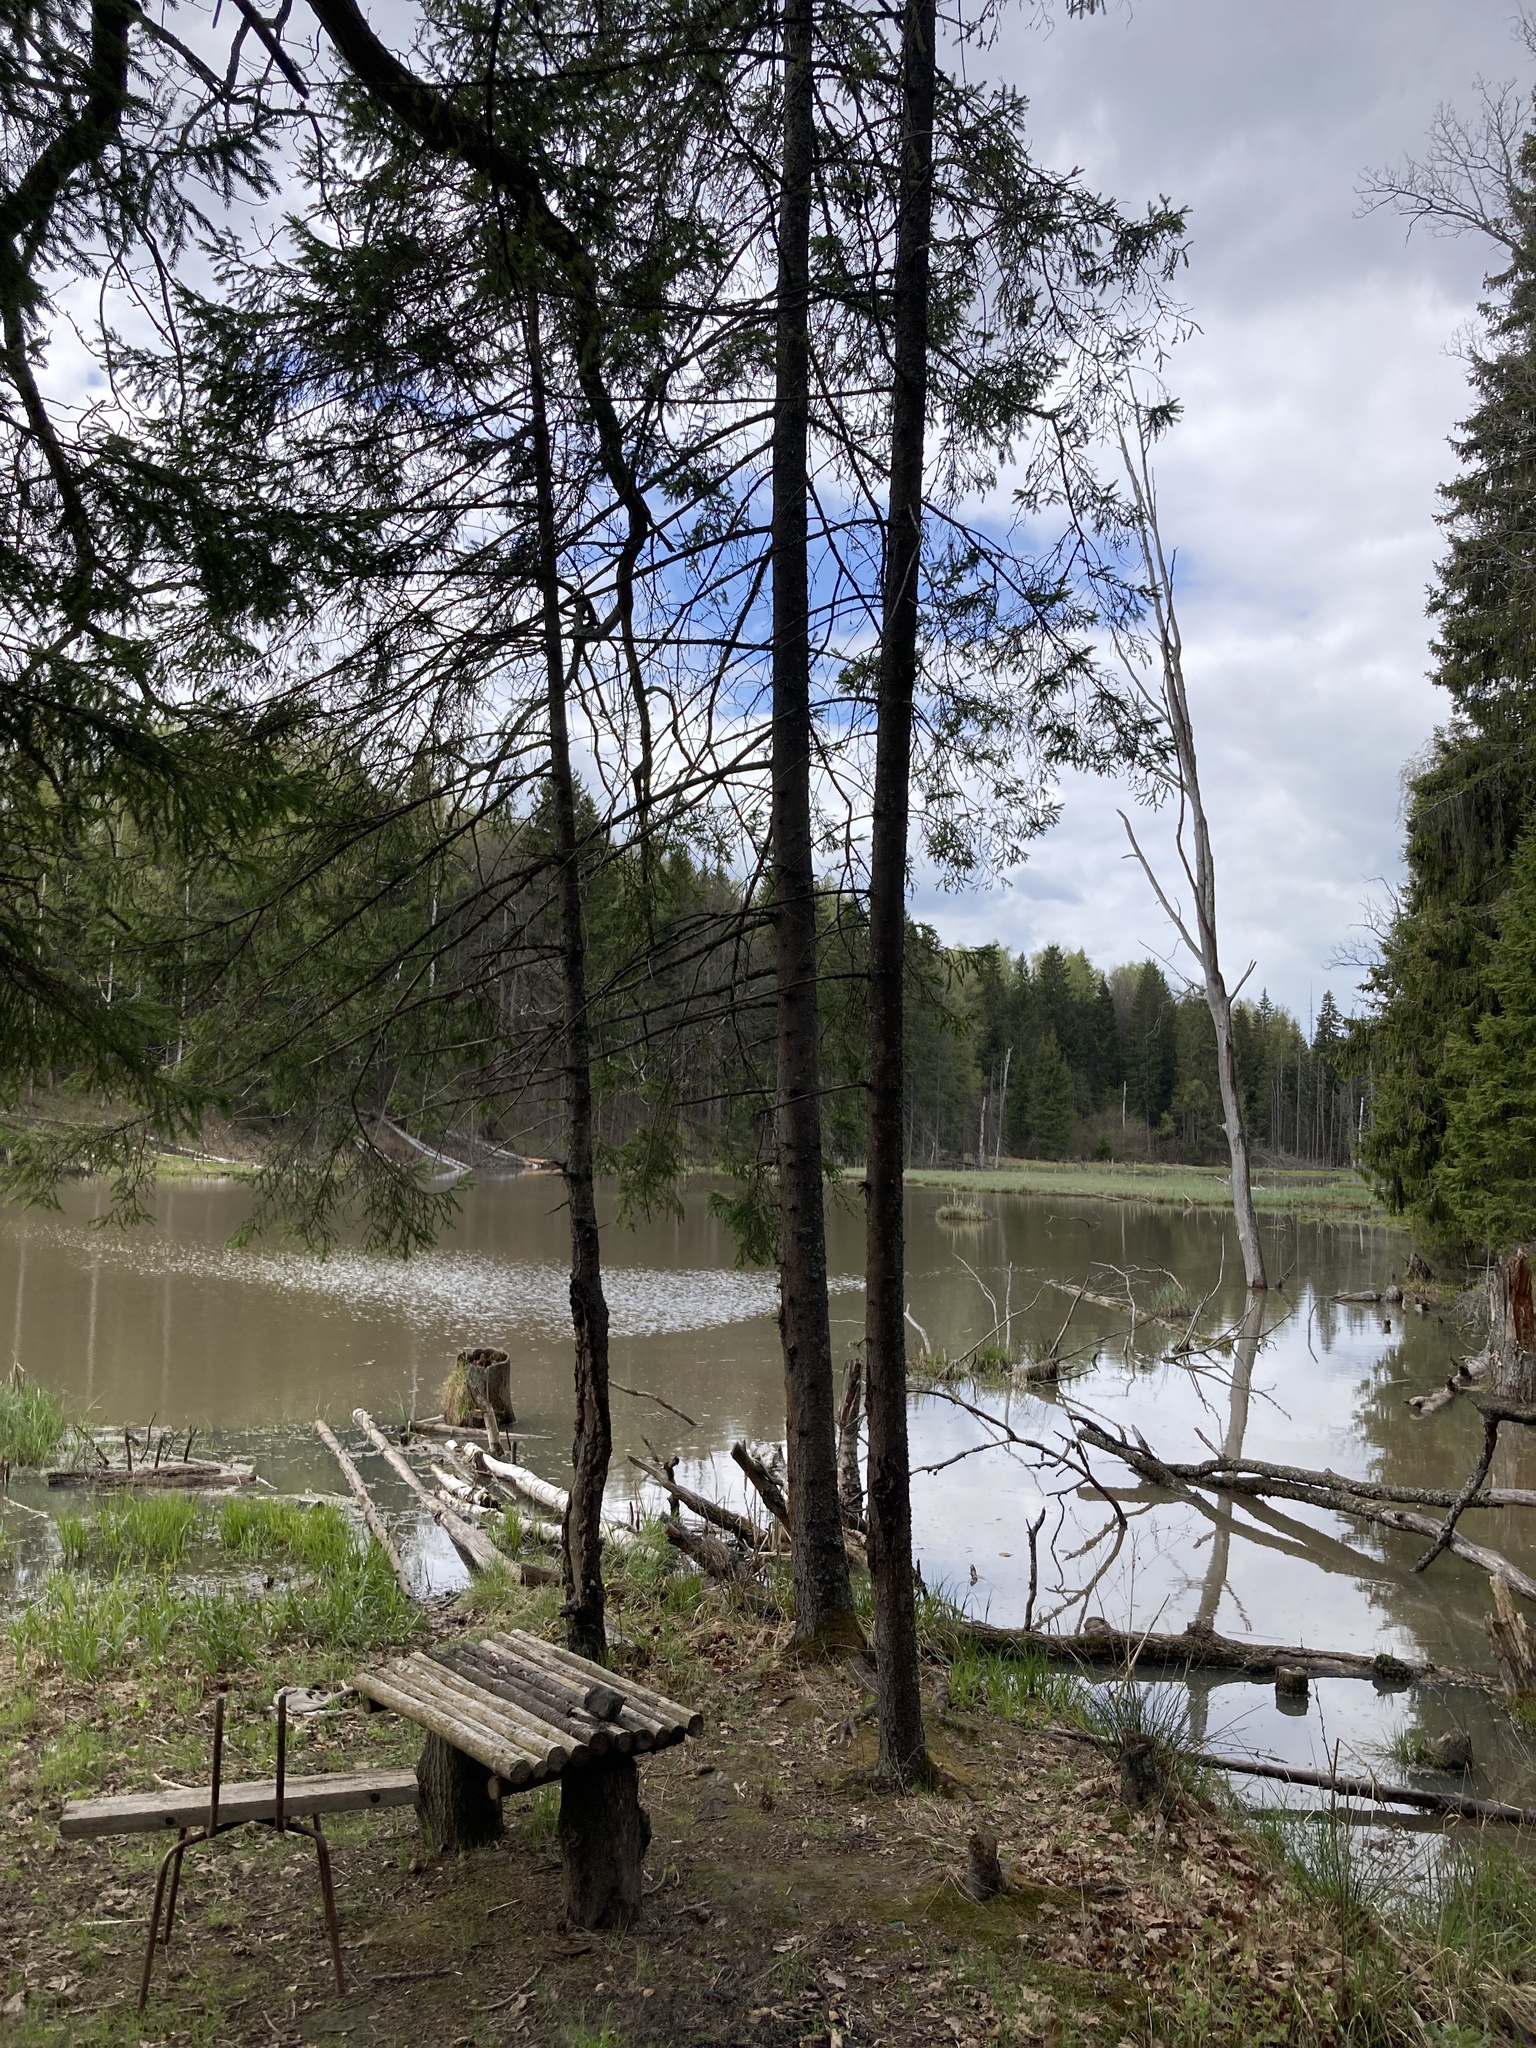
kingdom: Plantae
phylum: Tracheophyta
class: Pinopsida
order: Pinales
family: Pinaceae
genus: Picea
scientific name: Picea abies
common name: Norway spruce
